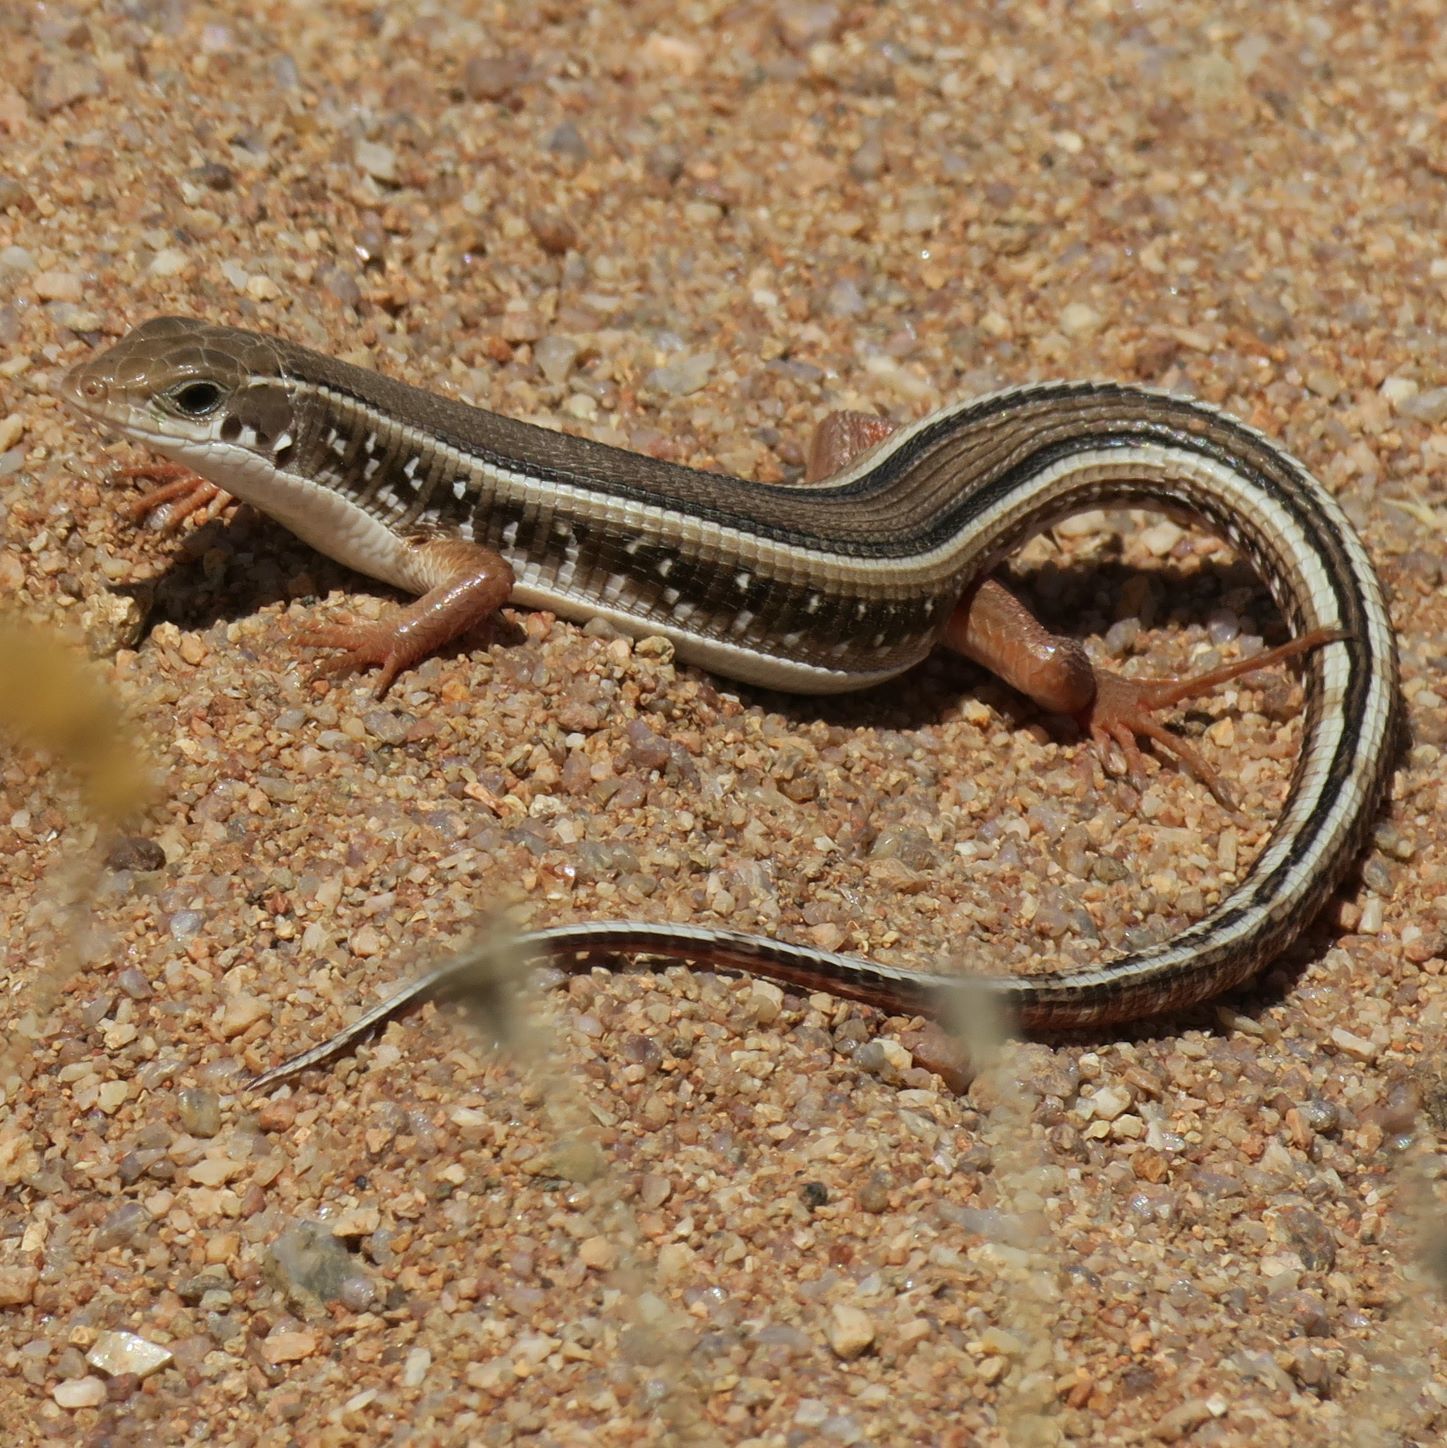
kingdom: Animalia
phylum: Chordata
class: Squamata
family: Gerrhosauridae
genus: Gerrhosaurus
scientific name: Gerrhosaurus typicus
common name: Karoo plated lizard
